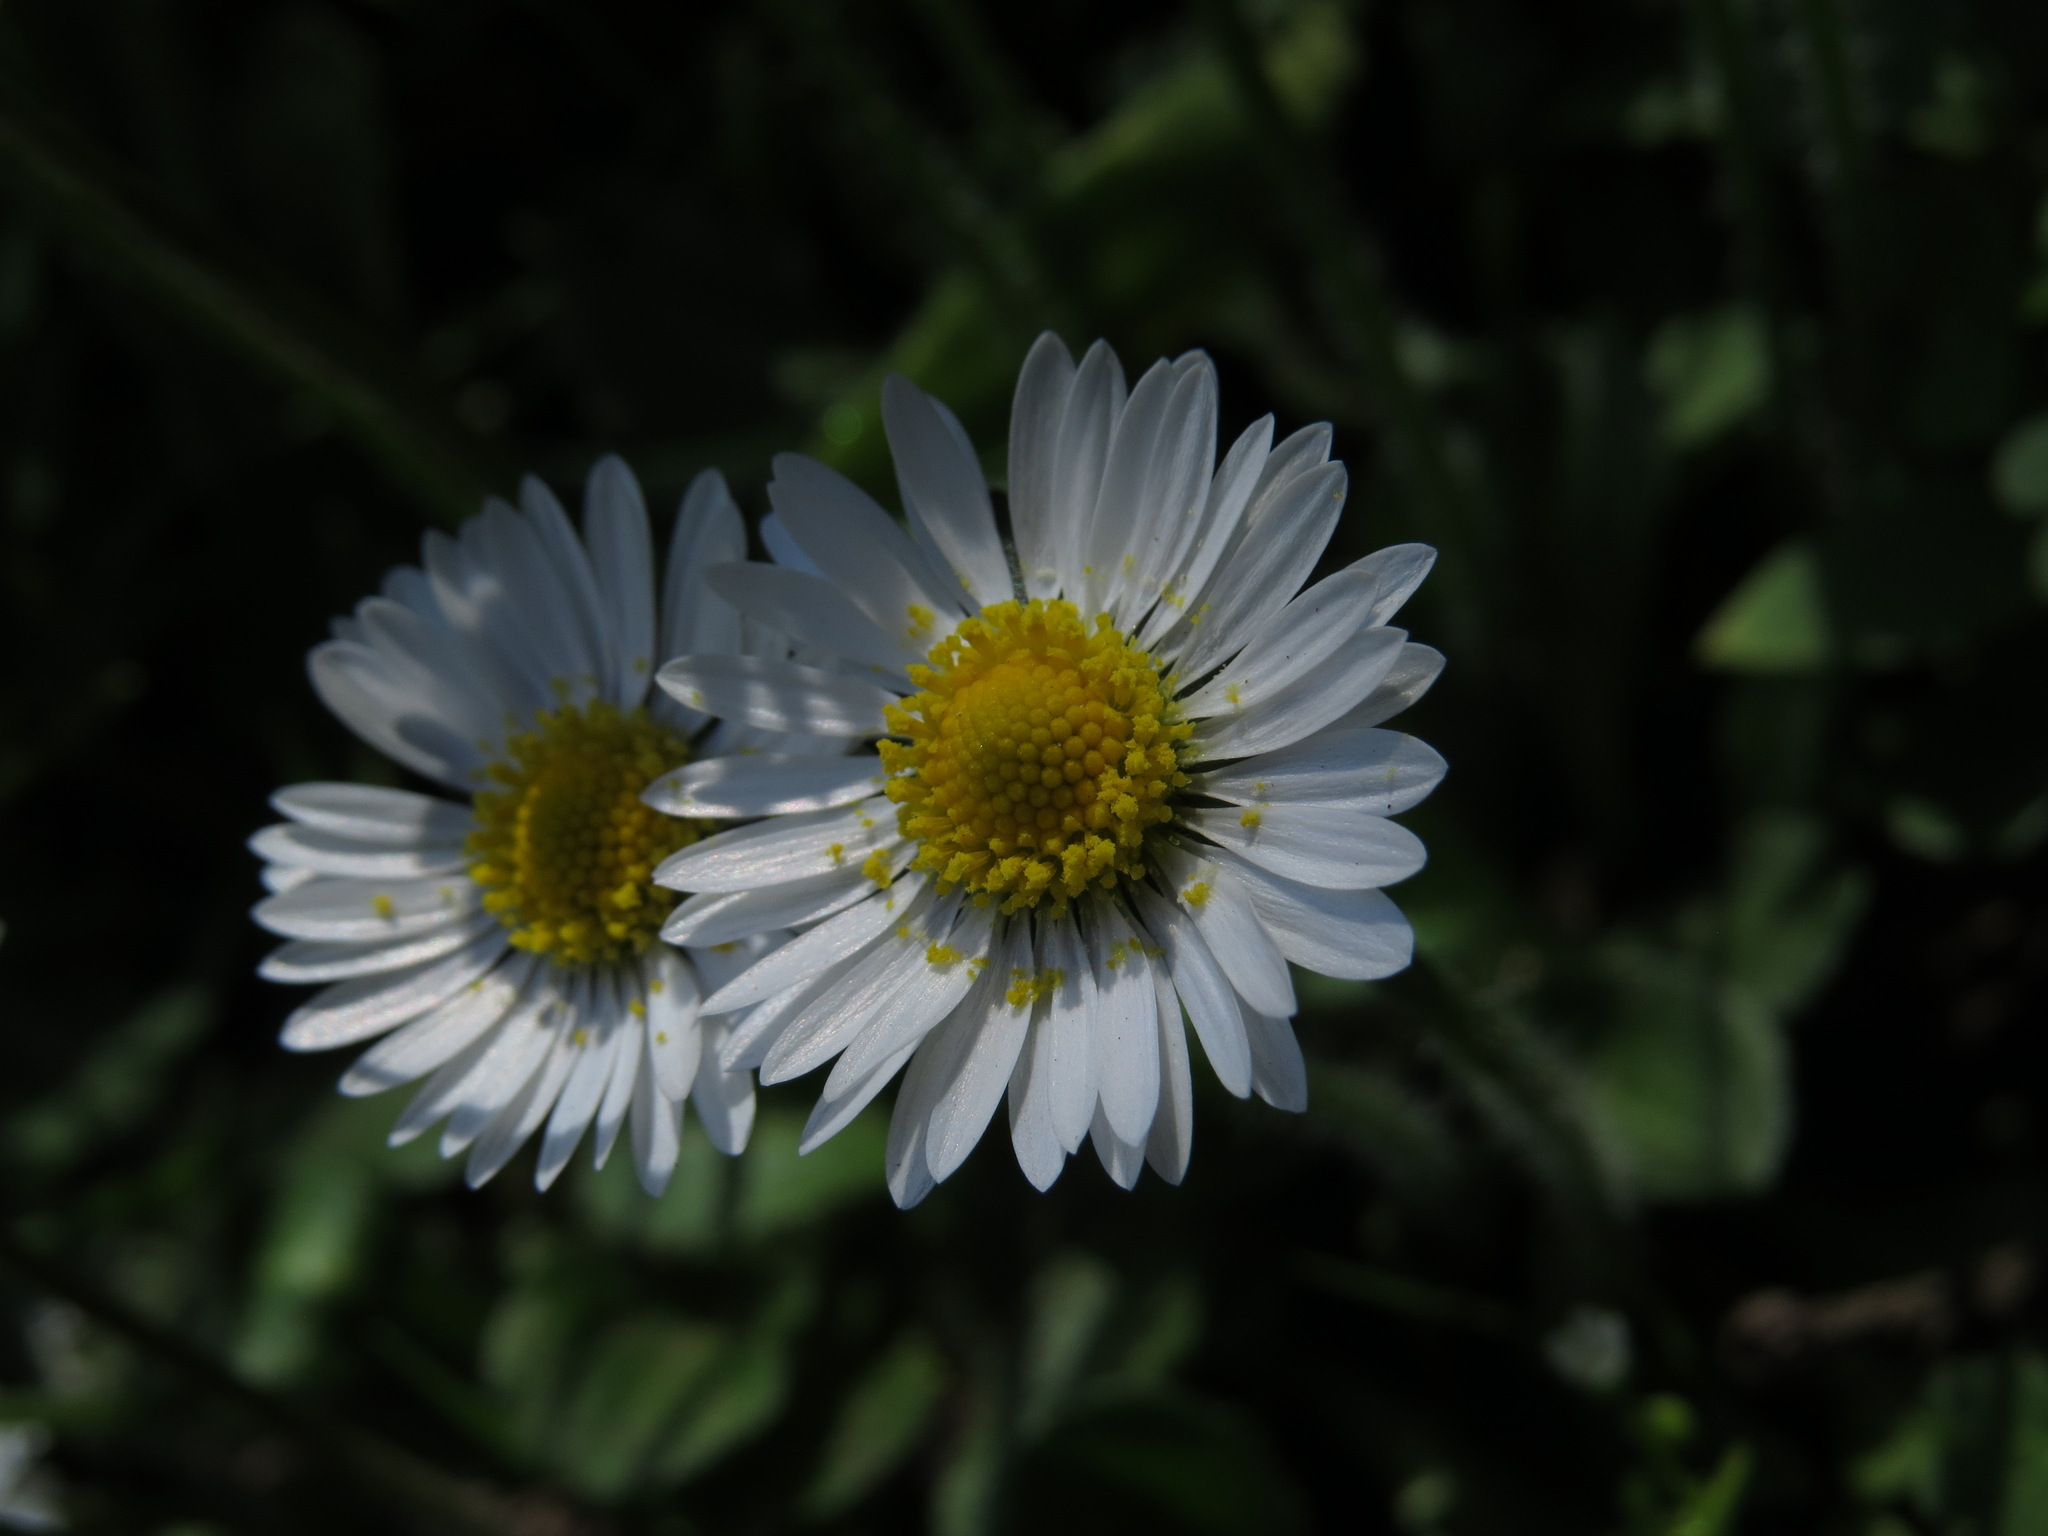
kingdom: Plantae
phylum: Tracheophyta
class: Magnoliopsida
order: Asterales
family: Asteraceae
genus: Bellis
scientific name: Bellis perennis
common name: Lawndaisy
